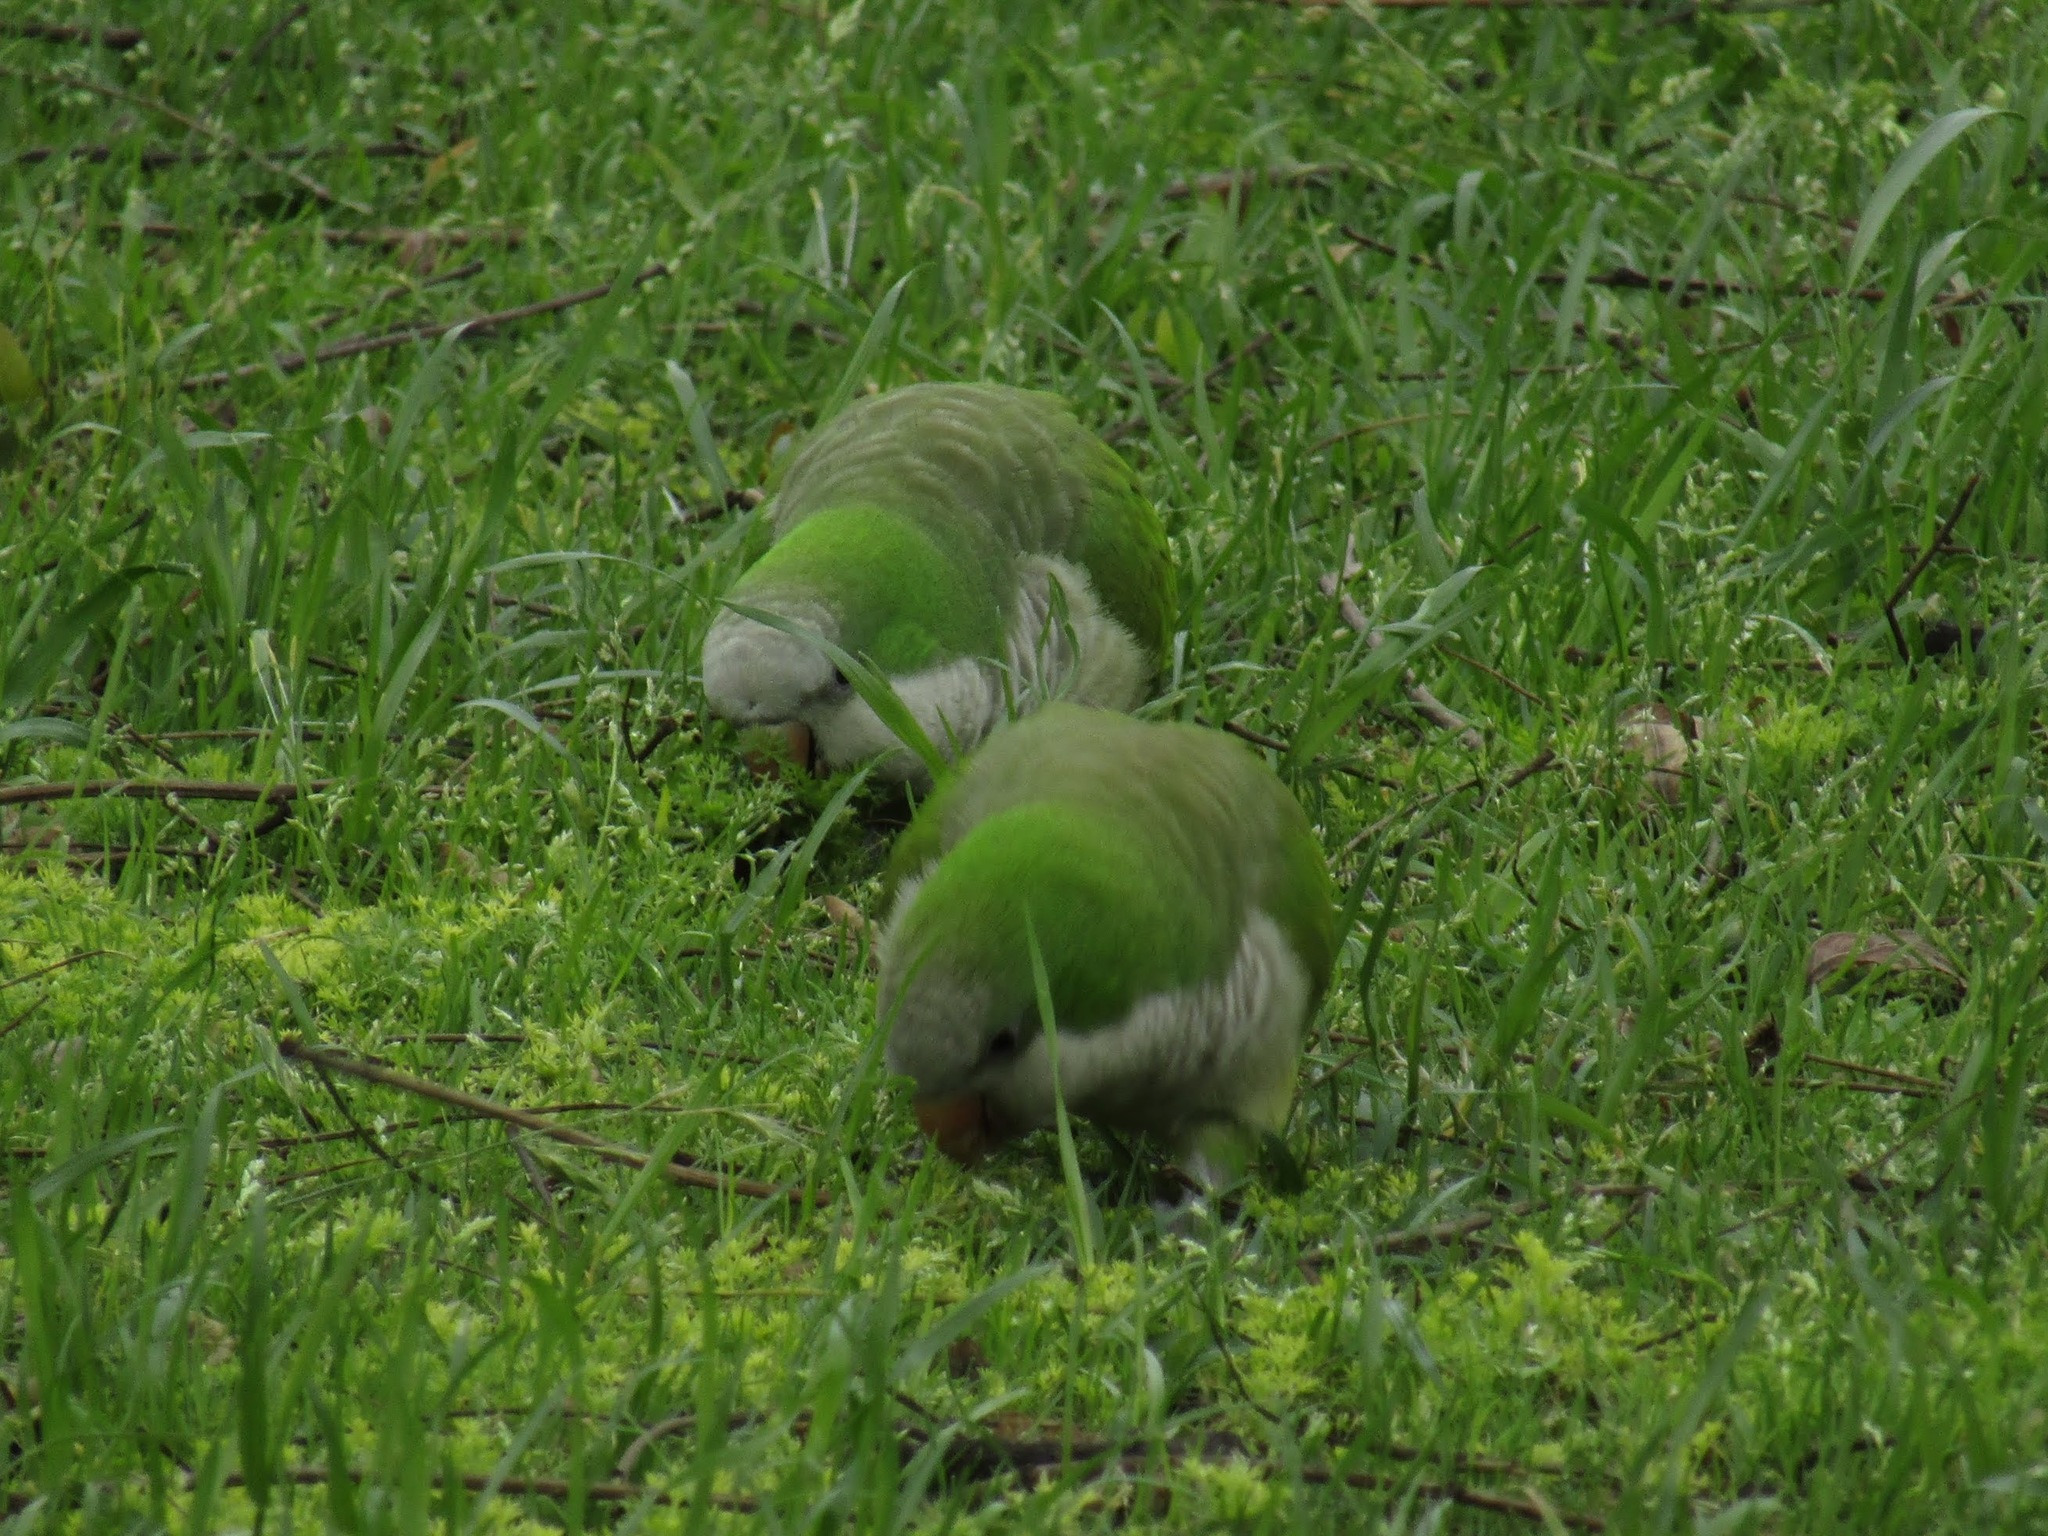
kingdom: Animalia
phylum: Chordata
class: Aves
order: Psittaciformes
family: Psittacidae
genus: Myiopsitta
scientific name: Myiopsitta monachus
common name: Monk parakeet
